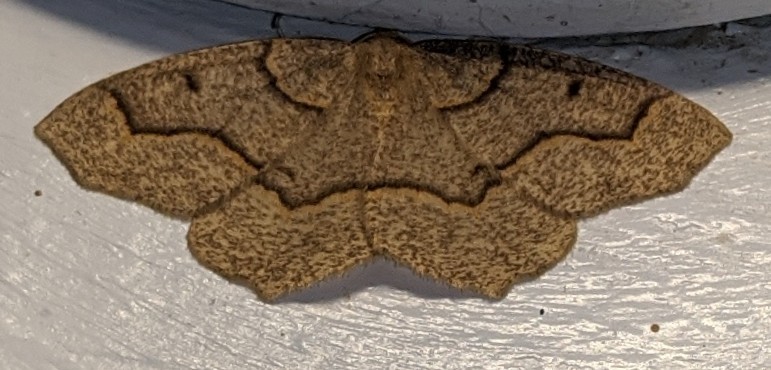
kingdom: Animalia
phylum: Arthropoda
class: Insecta
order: Lepidoptera
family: Geometridae
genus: Lambdina
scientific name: Lambdina fiscellaria
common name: Hemlock looper
